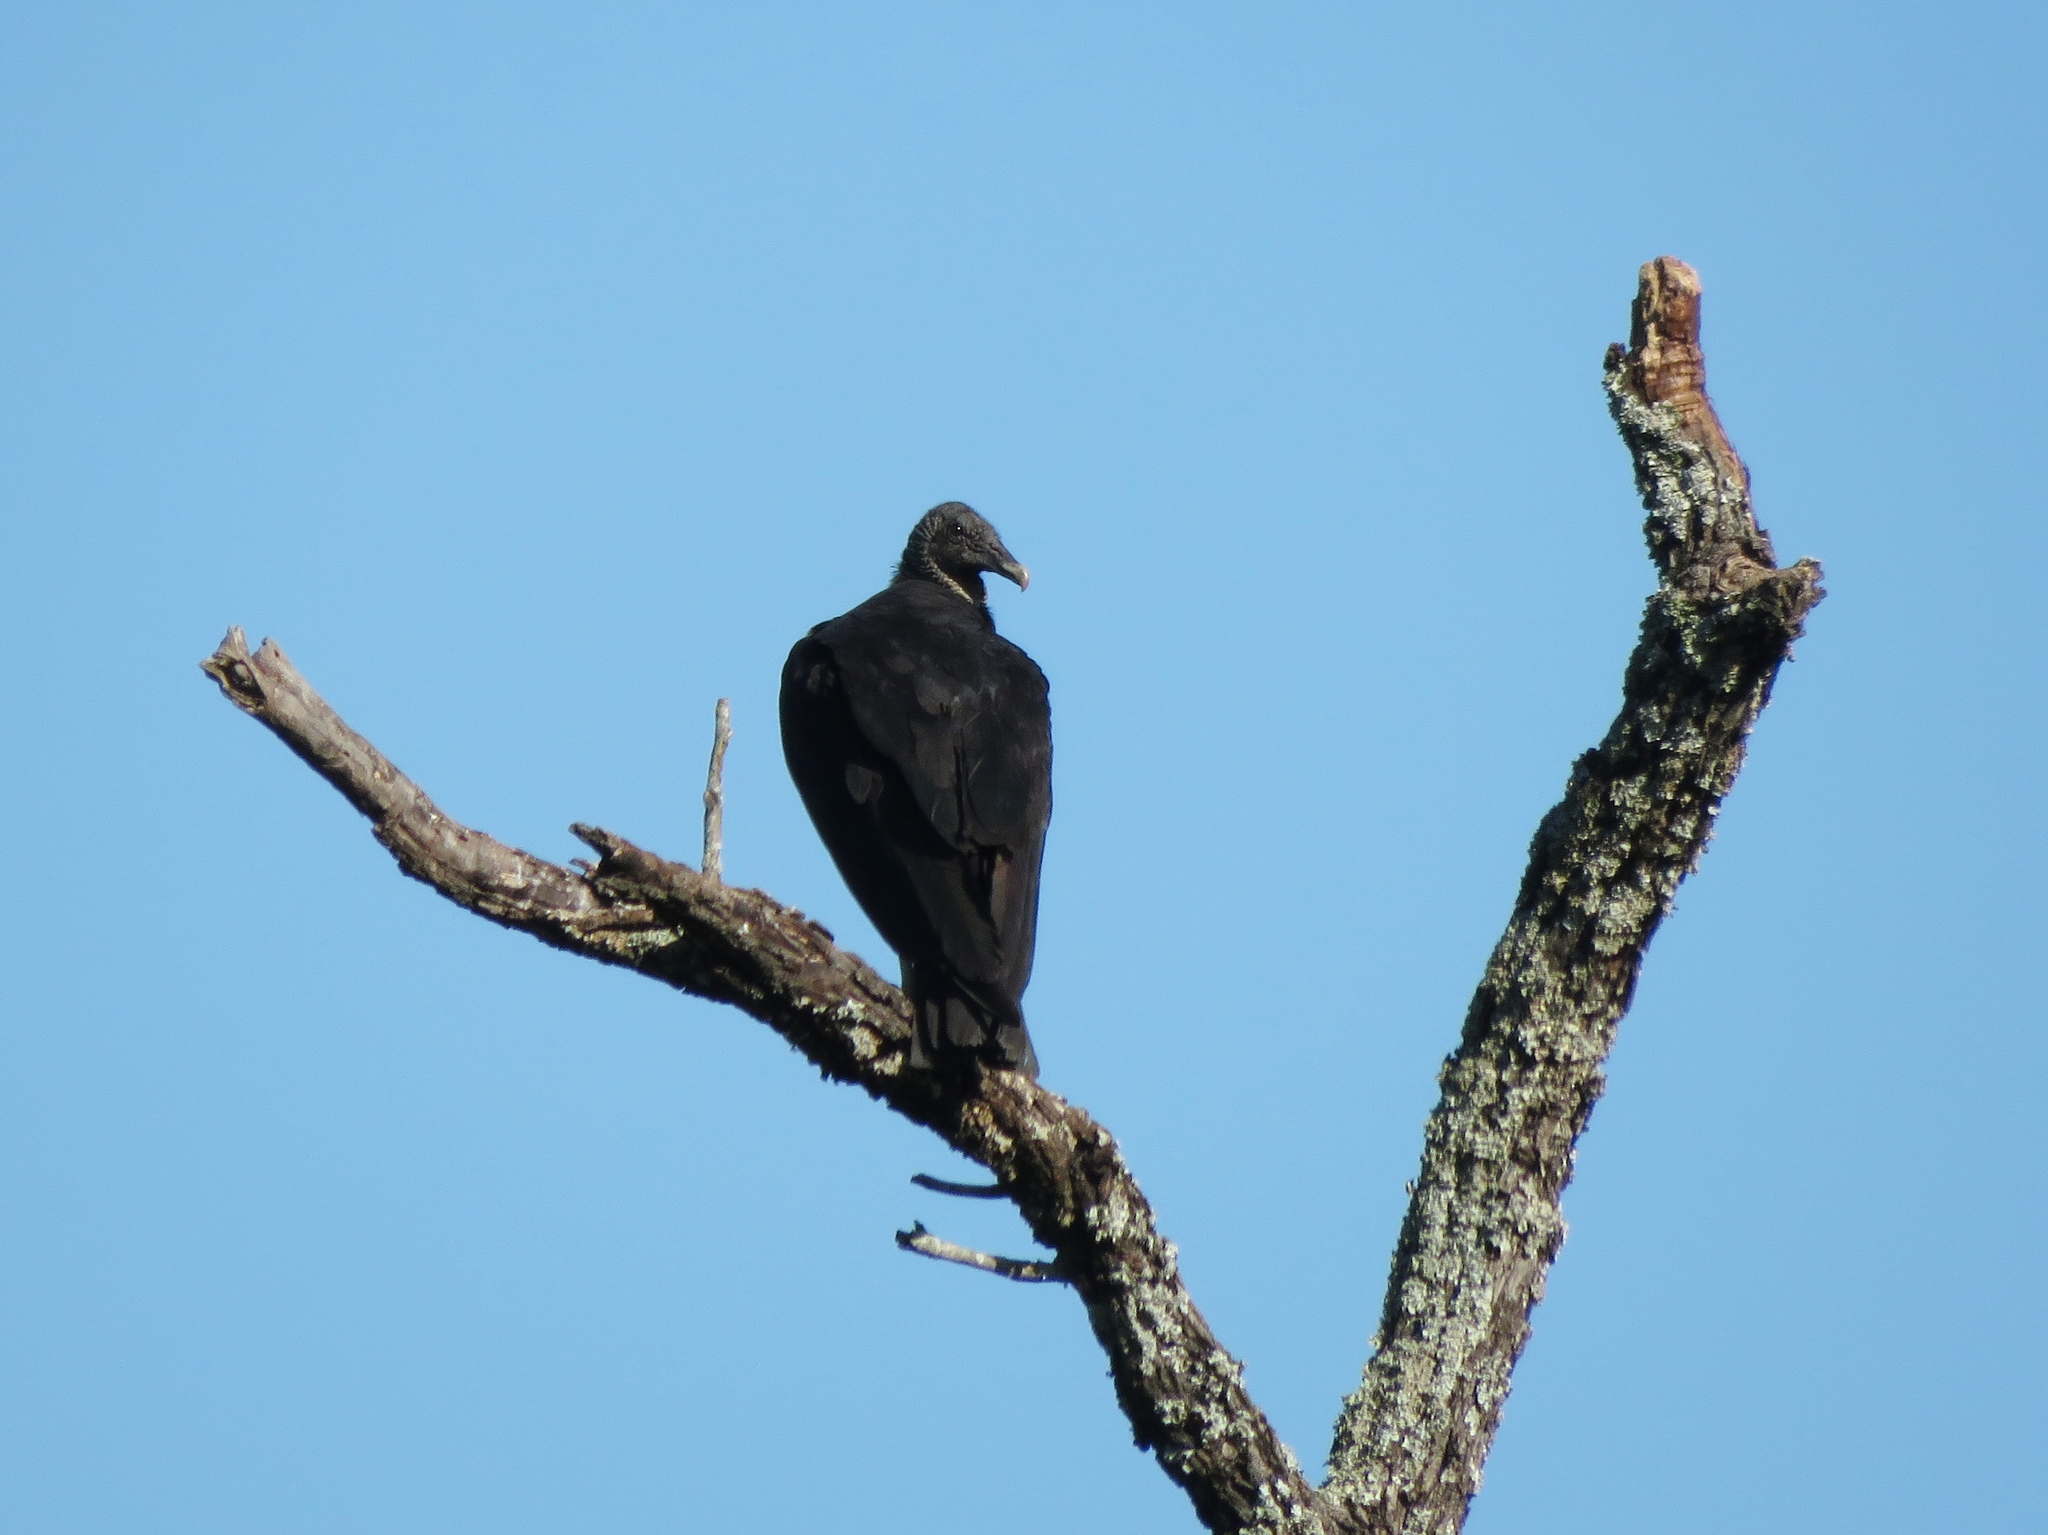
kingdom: Animalia
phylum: Chordata
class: Aves
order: Accipitriformes
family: Cathartidae
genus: Coragyps
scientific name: Coragyps atratus
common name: Black vulture
